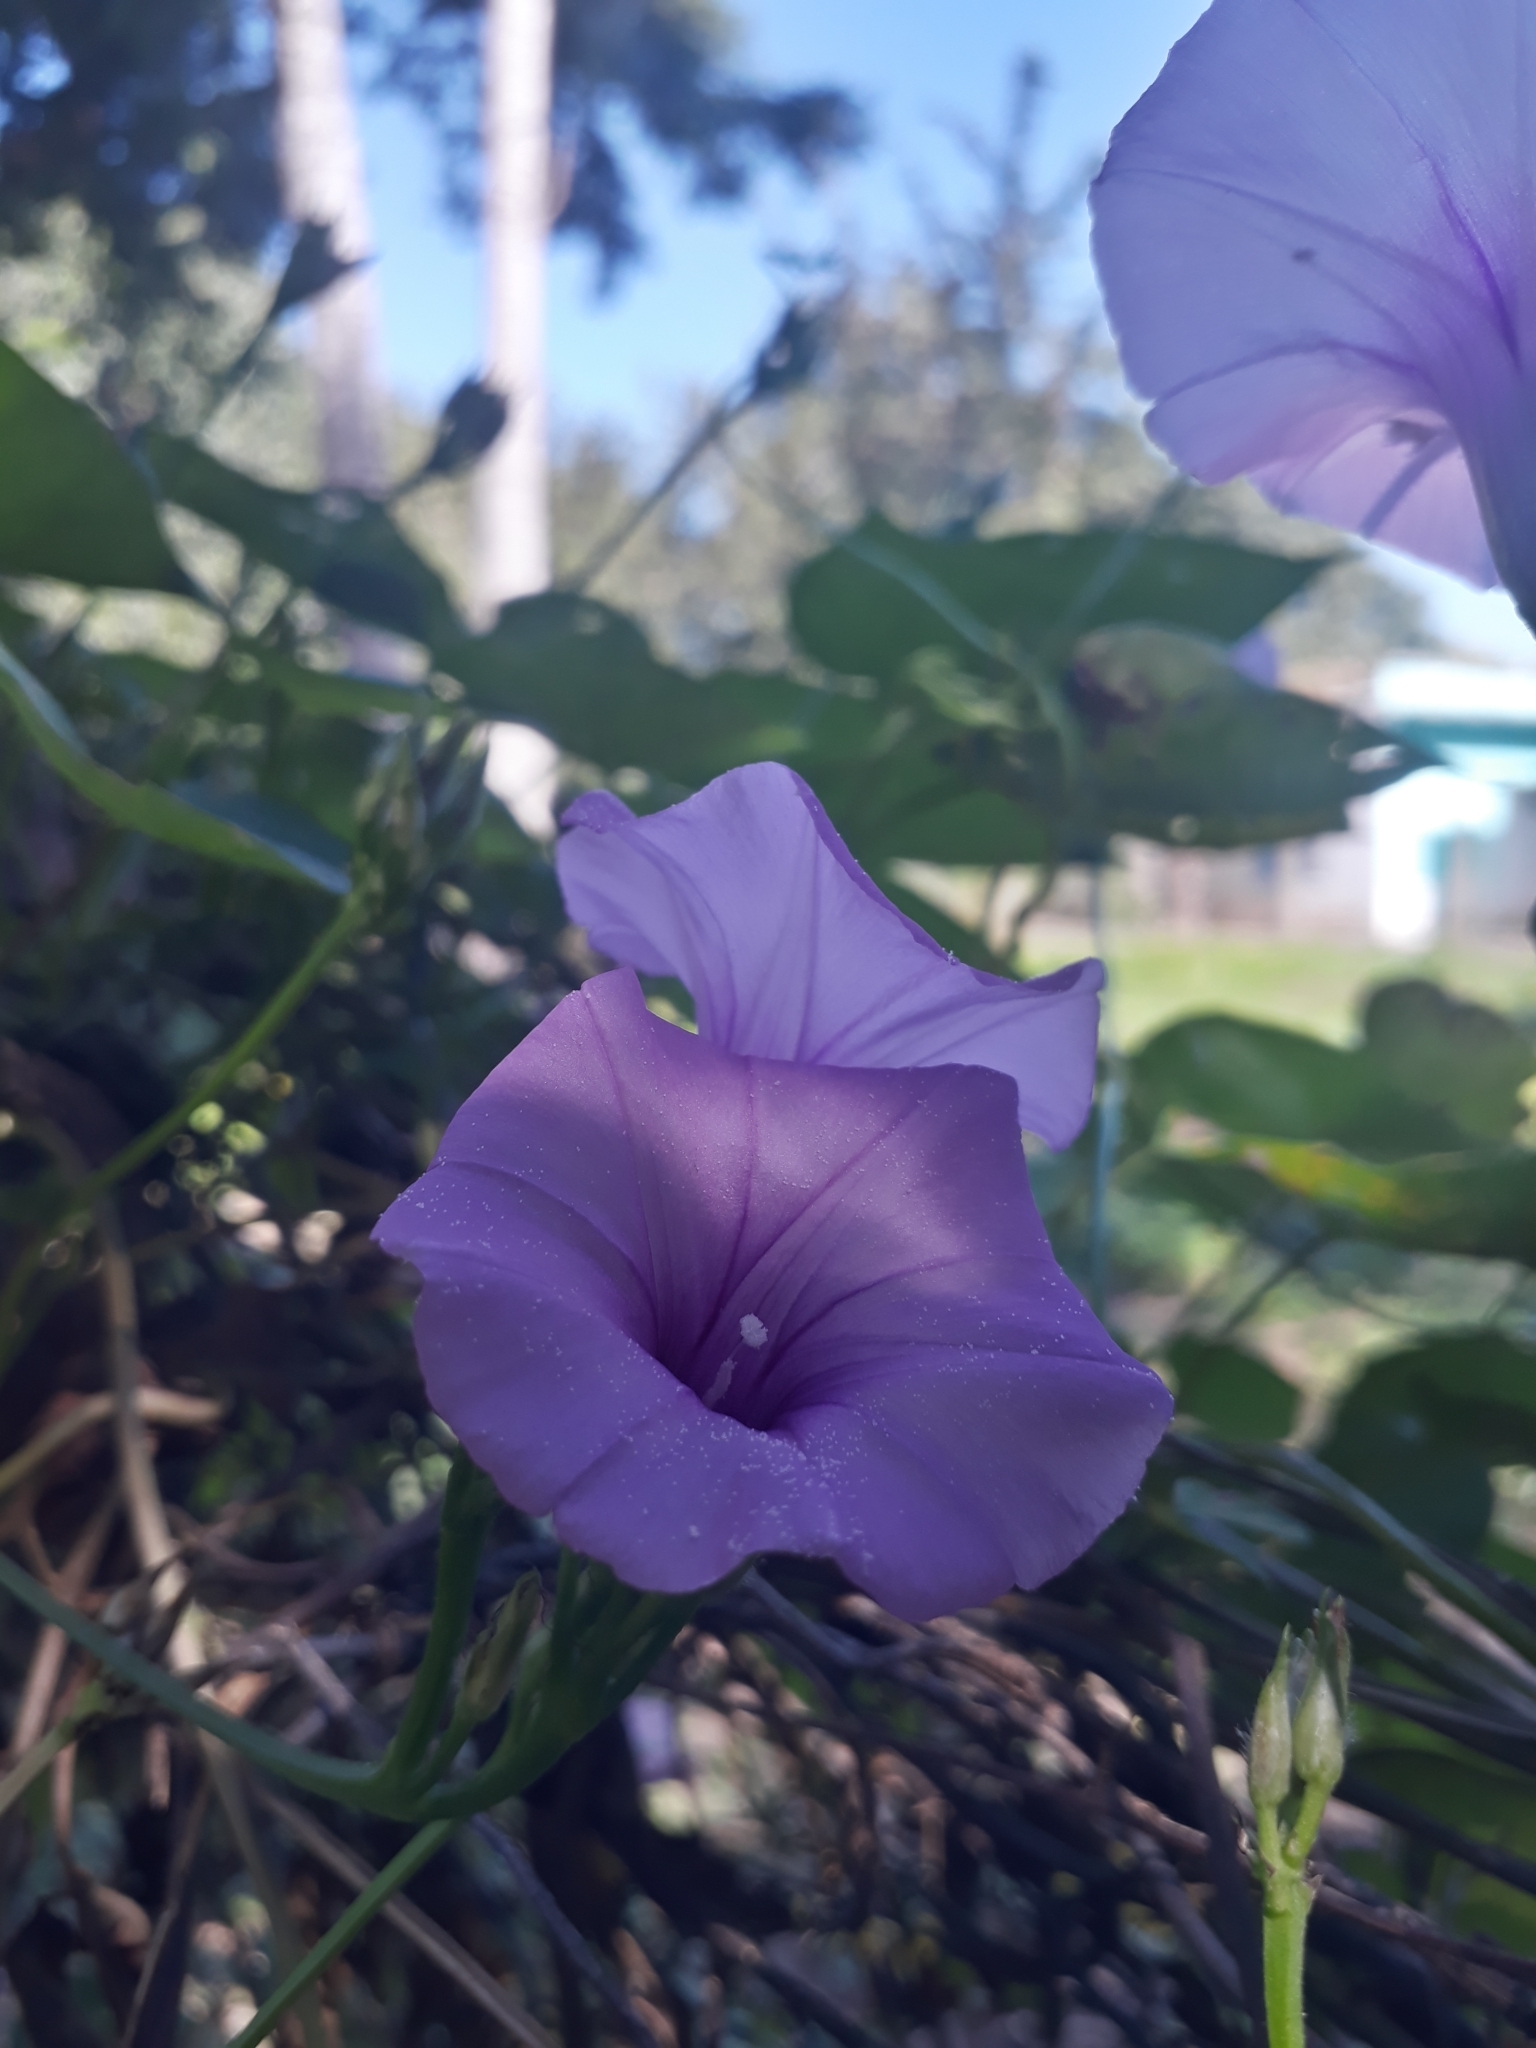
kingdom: Plantae
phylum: Tracheophyta
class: Magnoliopsida
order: Solanales
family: Convolvulaceae
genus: Ipomoea
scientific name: Ipomoea trifida
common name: Cotton morningglory
